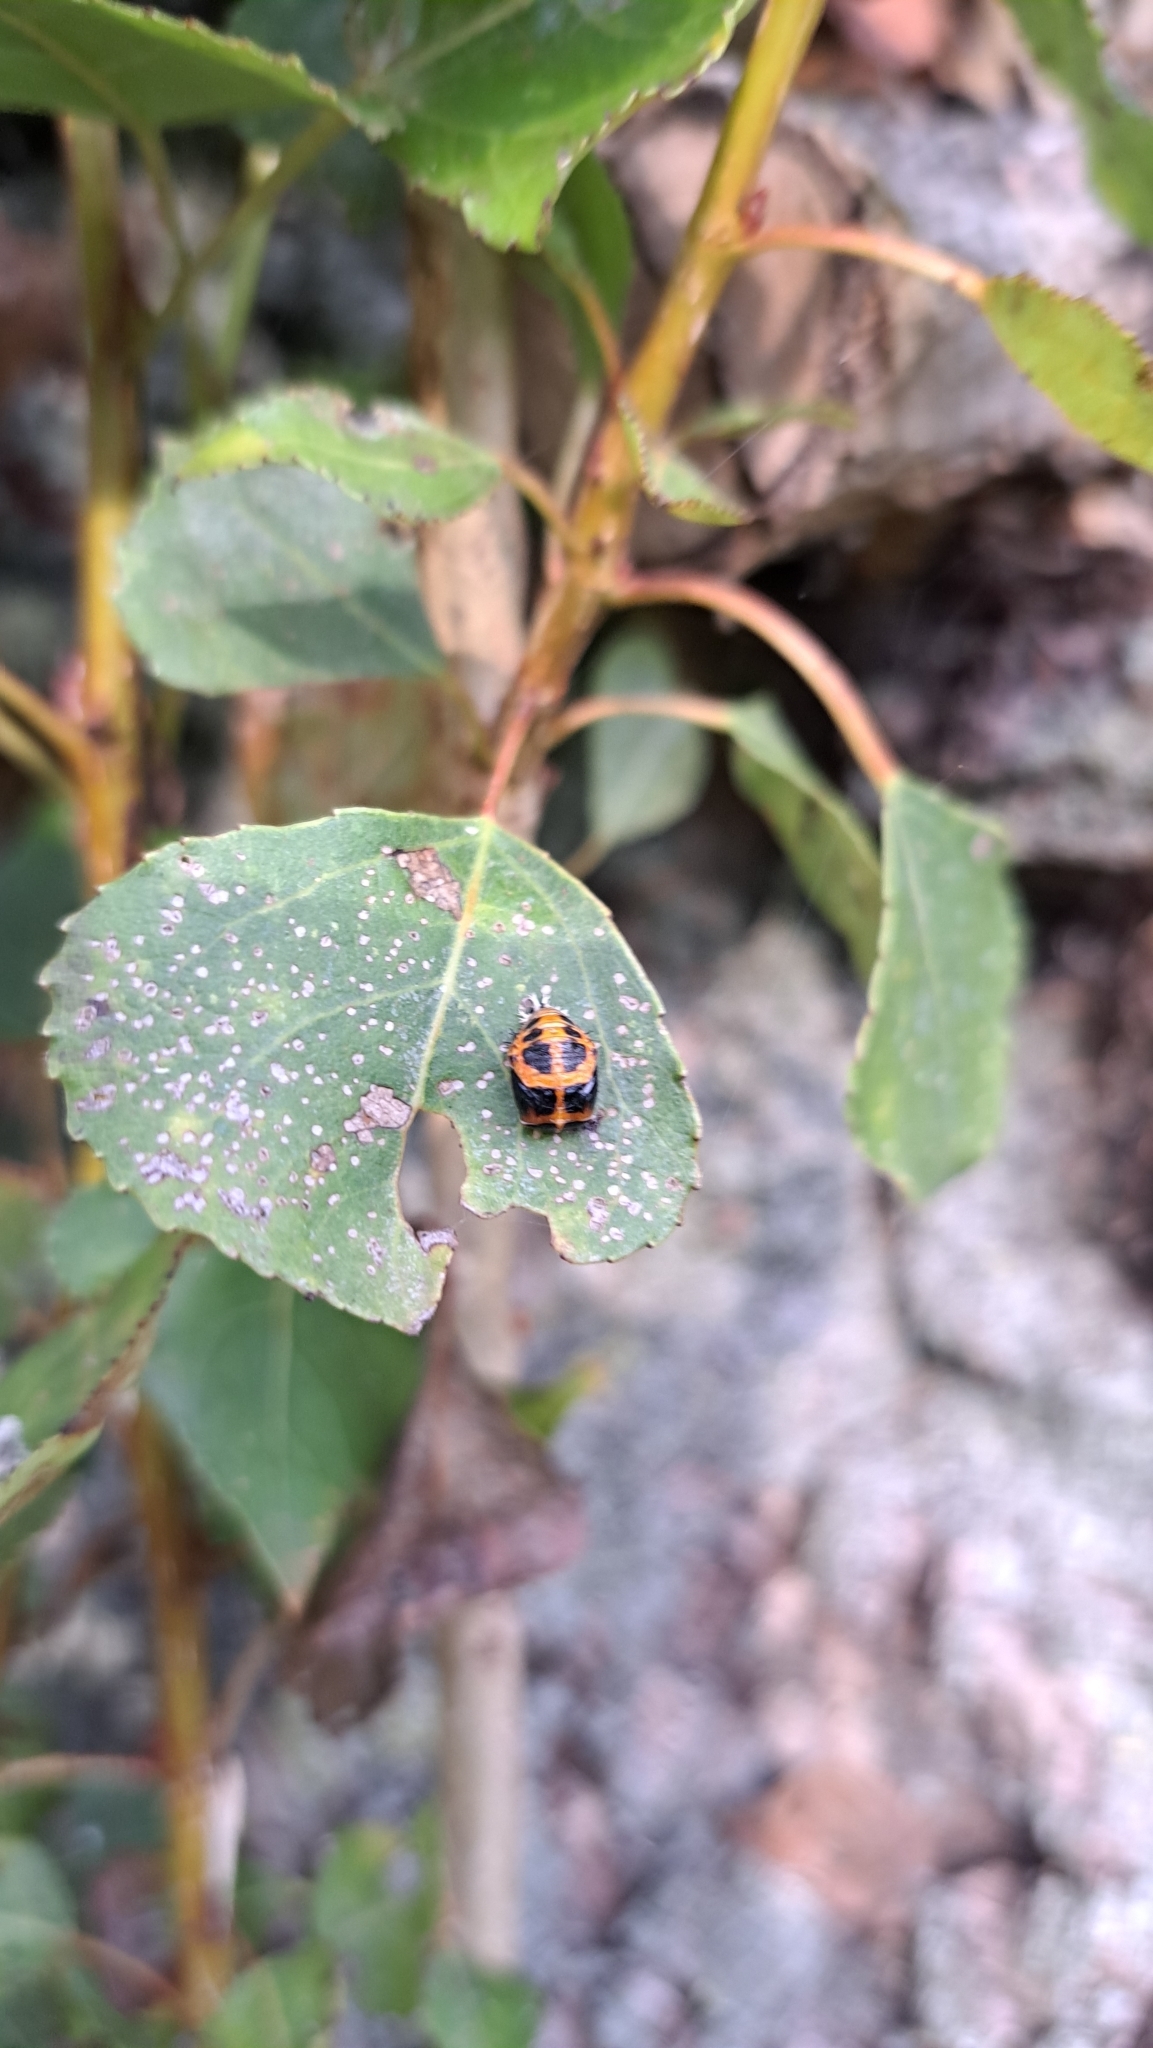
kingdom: Animalia
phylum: Arthropoda
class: Insecta
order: Coleoptera
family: Coccinellidae
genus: Harmonia
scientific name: Harmonia axyridis
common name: Harlequin ladybird
